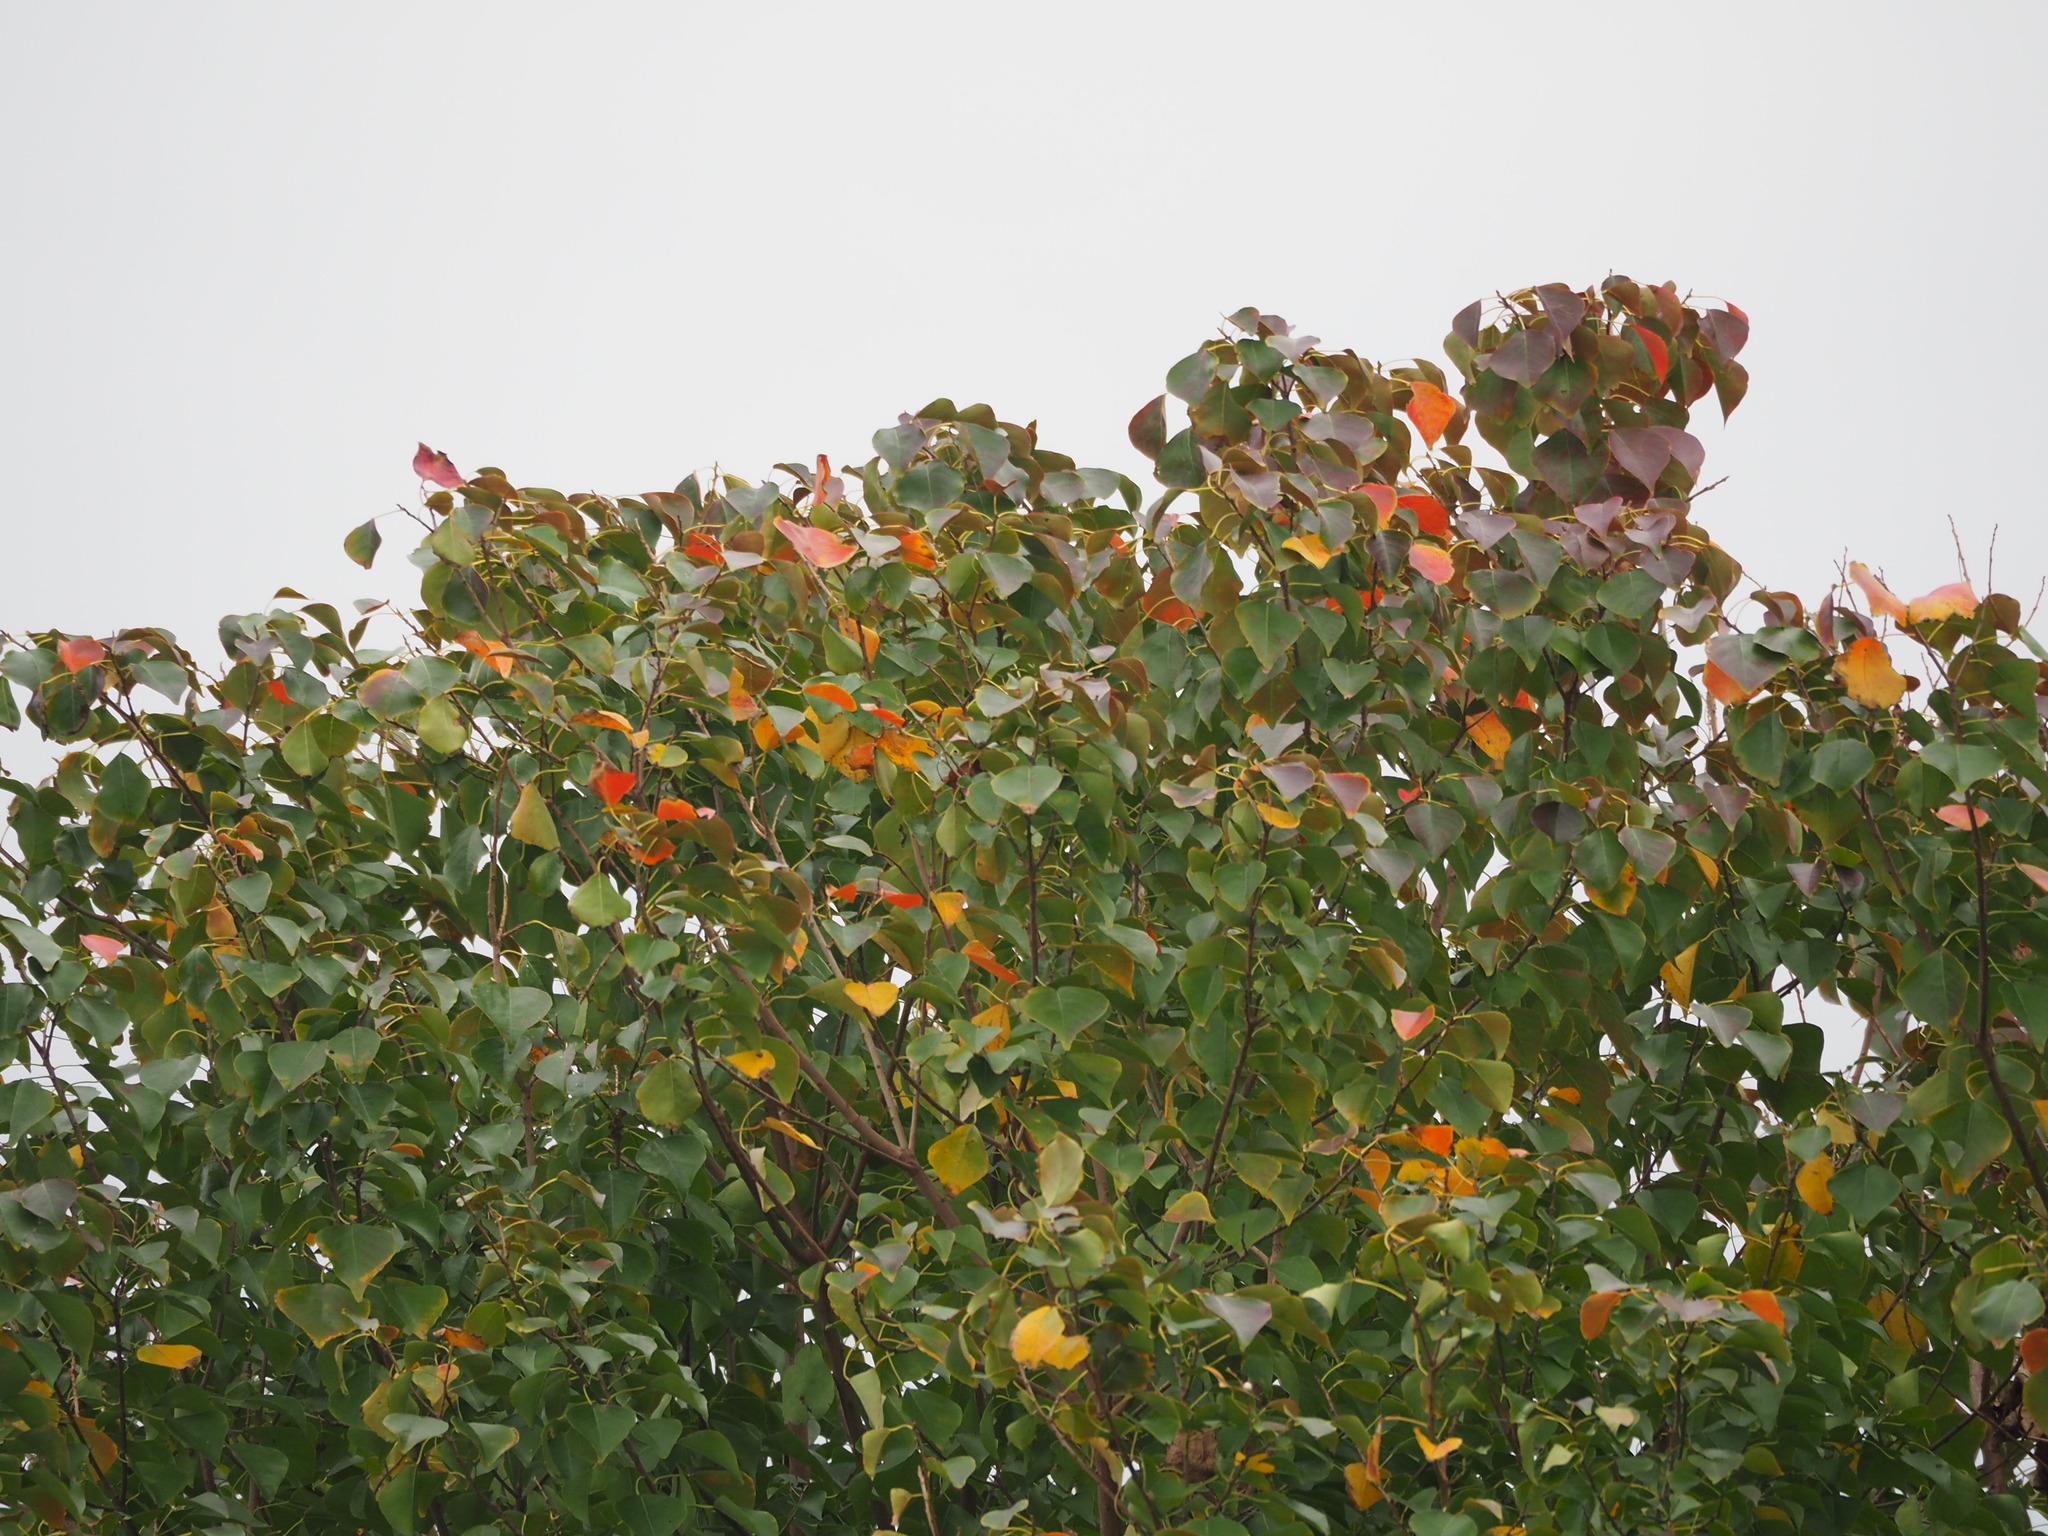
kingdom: Plantae
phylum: Tracheophyta
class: Magnoliopsida
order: Malpighiales
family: Euphorbiaceae
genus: Triadica
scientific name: Triadica sebifera
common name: Chinese tallow
